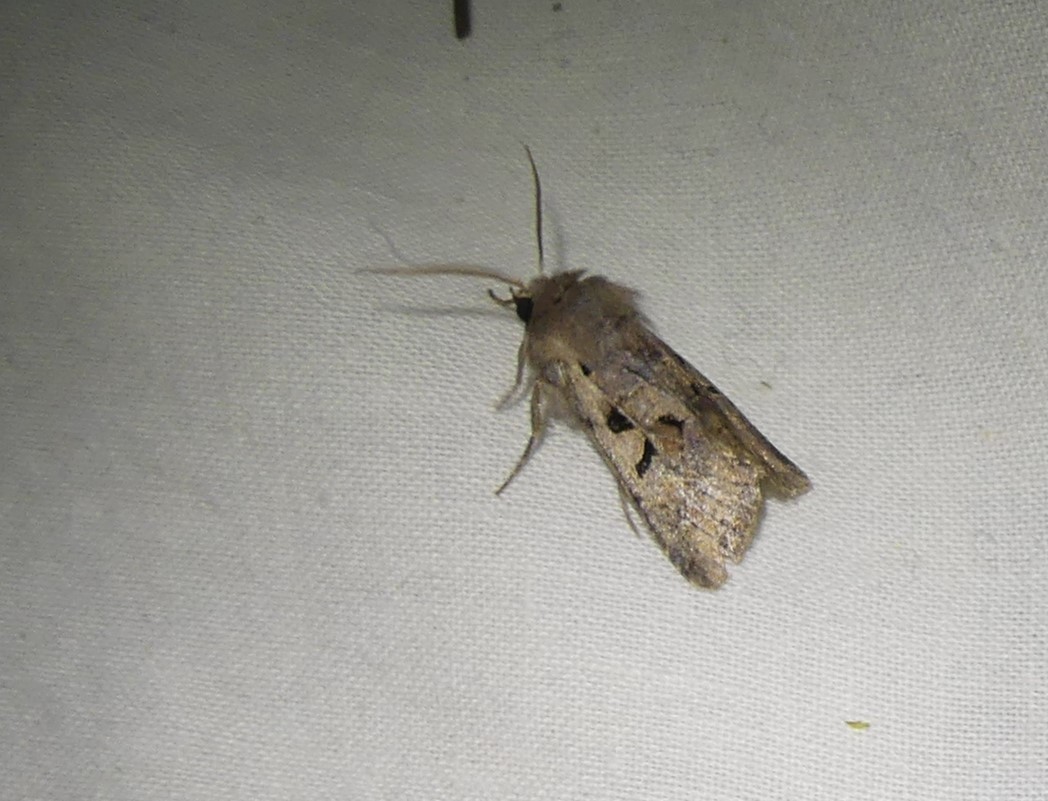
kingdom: Animalia
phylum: Arthropoda
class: Insecta
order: Lepidoptera
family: Noctuidae
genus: Orthosia
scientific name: Orthosia gothica
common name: Hebrew character
